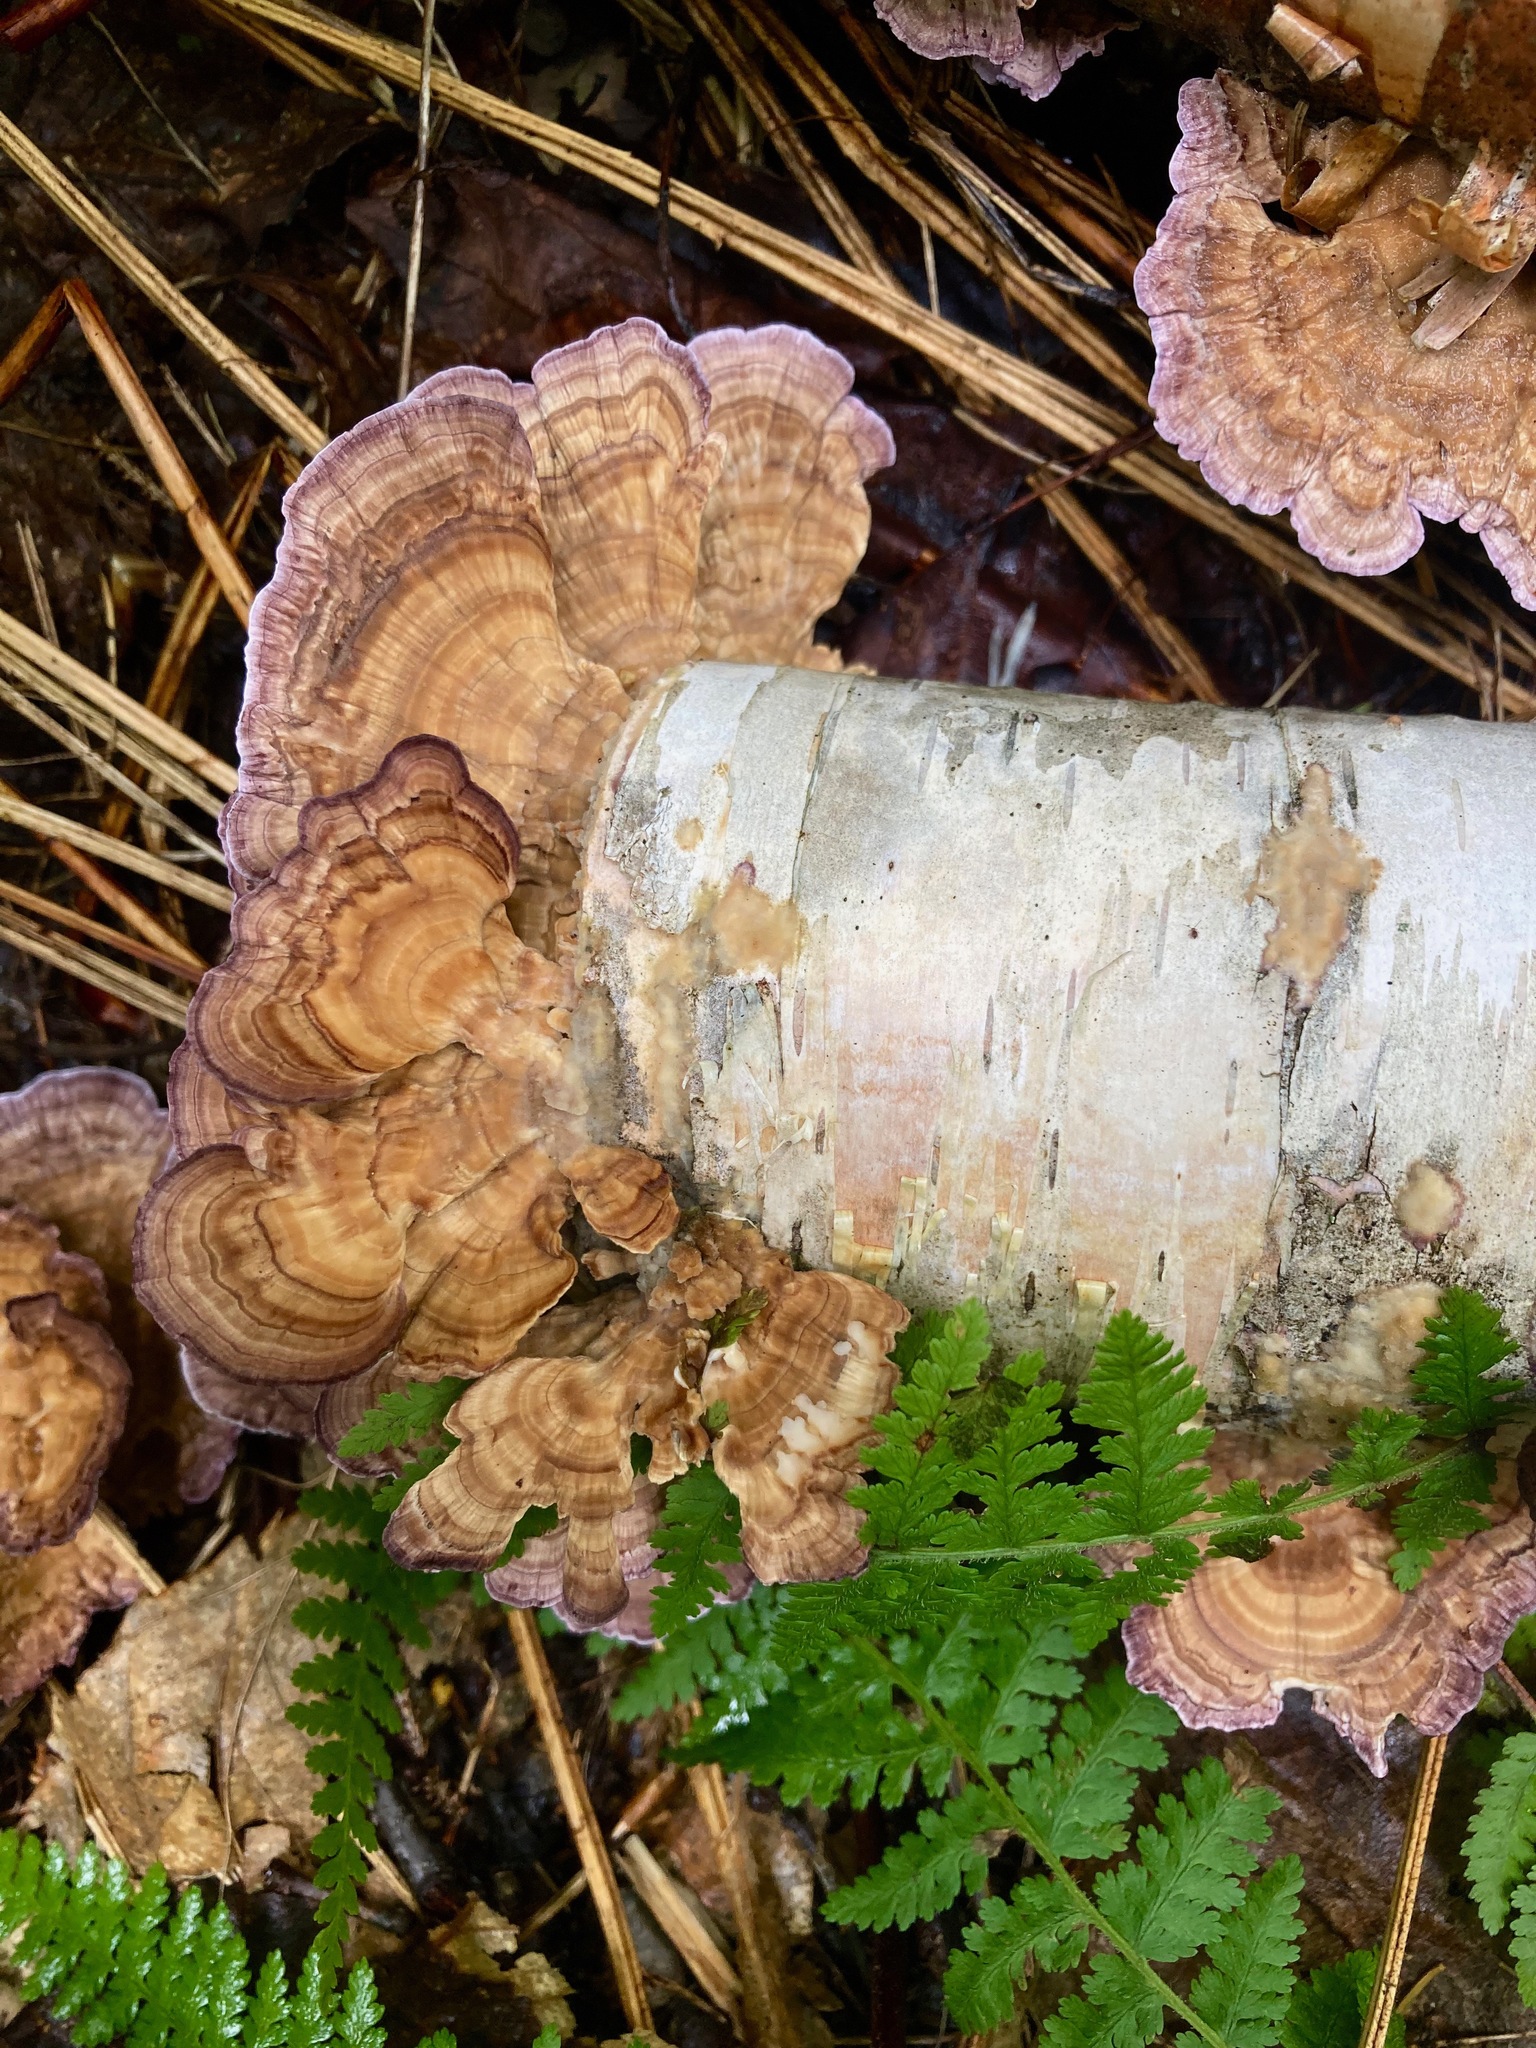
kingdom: Fungi
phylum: Basidiomycota
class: Agaricomycetes
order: Hymenochaetales
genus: Trichaptum
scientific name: Trichaptum biforme
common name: Violet-toothed polypore
